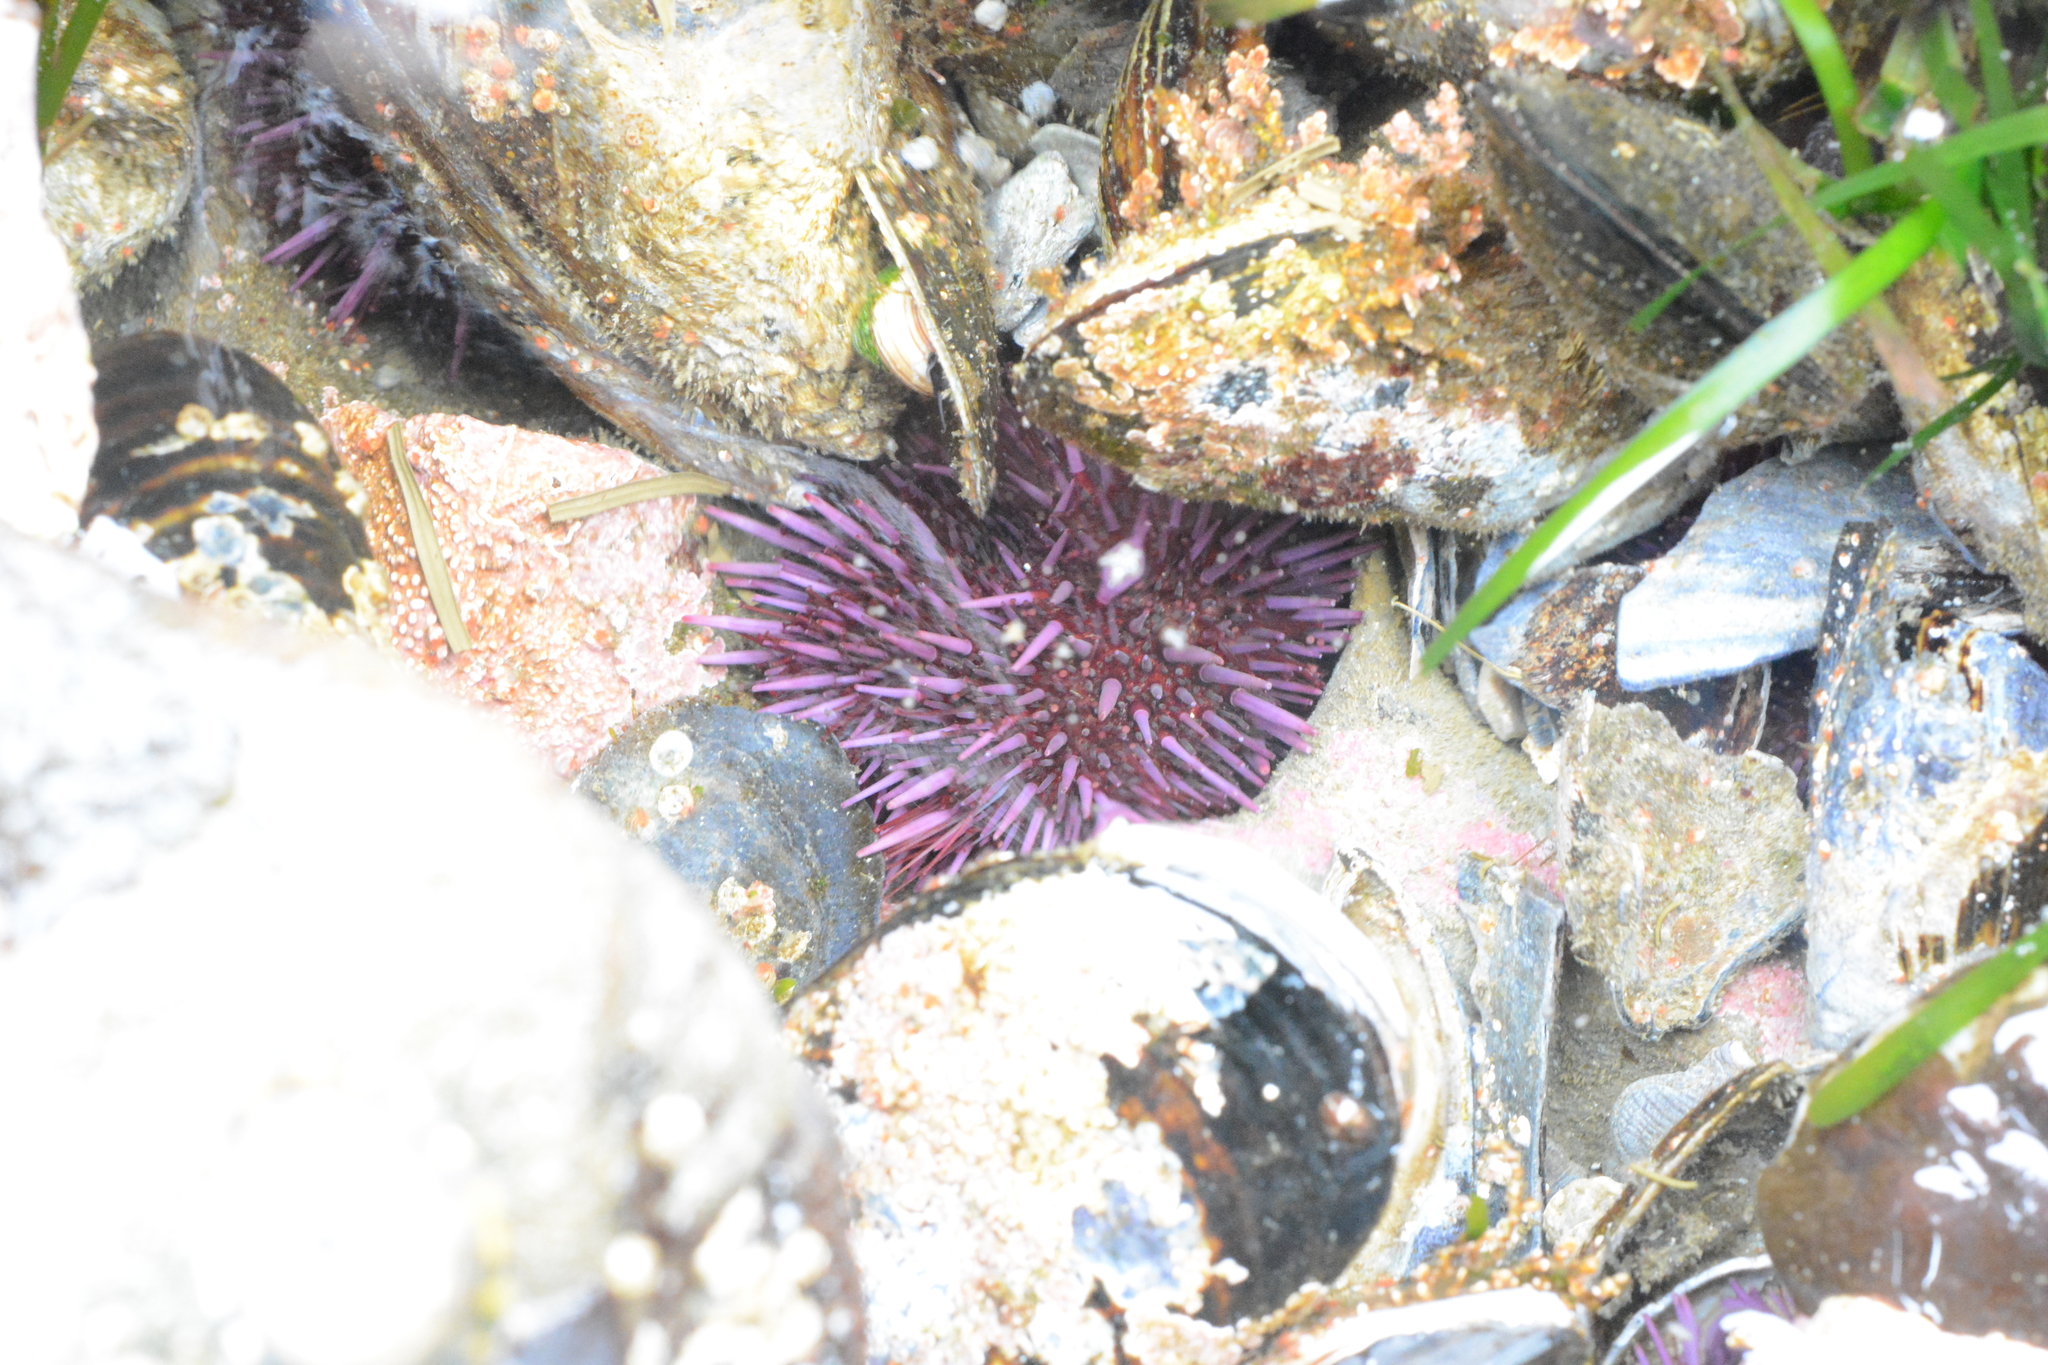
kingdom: Animalia
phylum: Echinodermata
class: Echinoidea
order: Camarodonta
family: Strongylocentrotidae
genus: Strongylocentrotus
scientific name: Strongylocentrotus purpuratus
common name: Purple sea urchin
